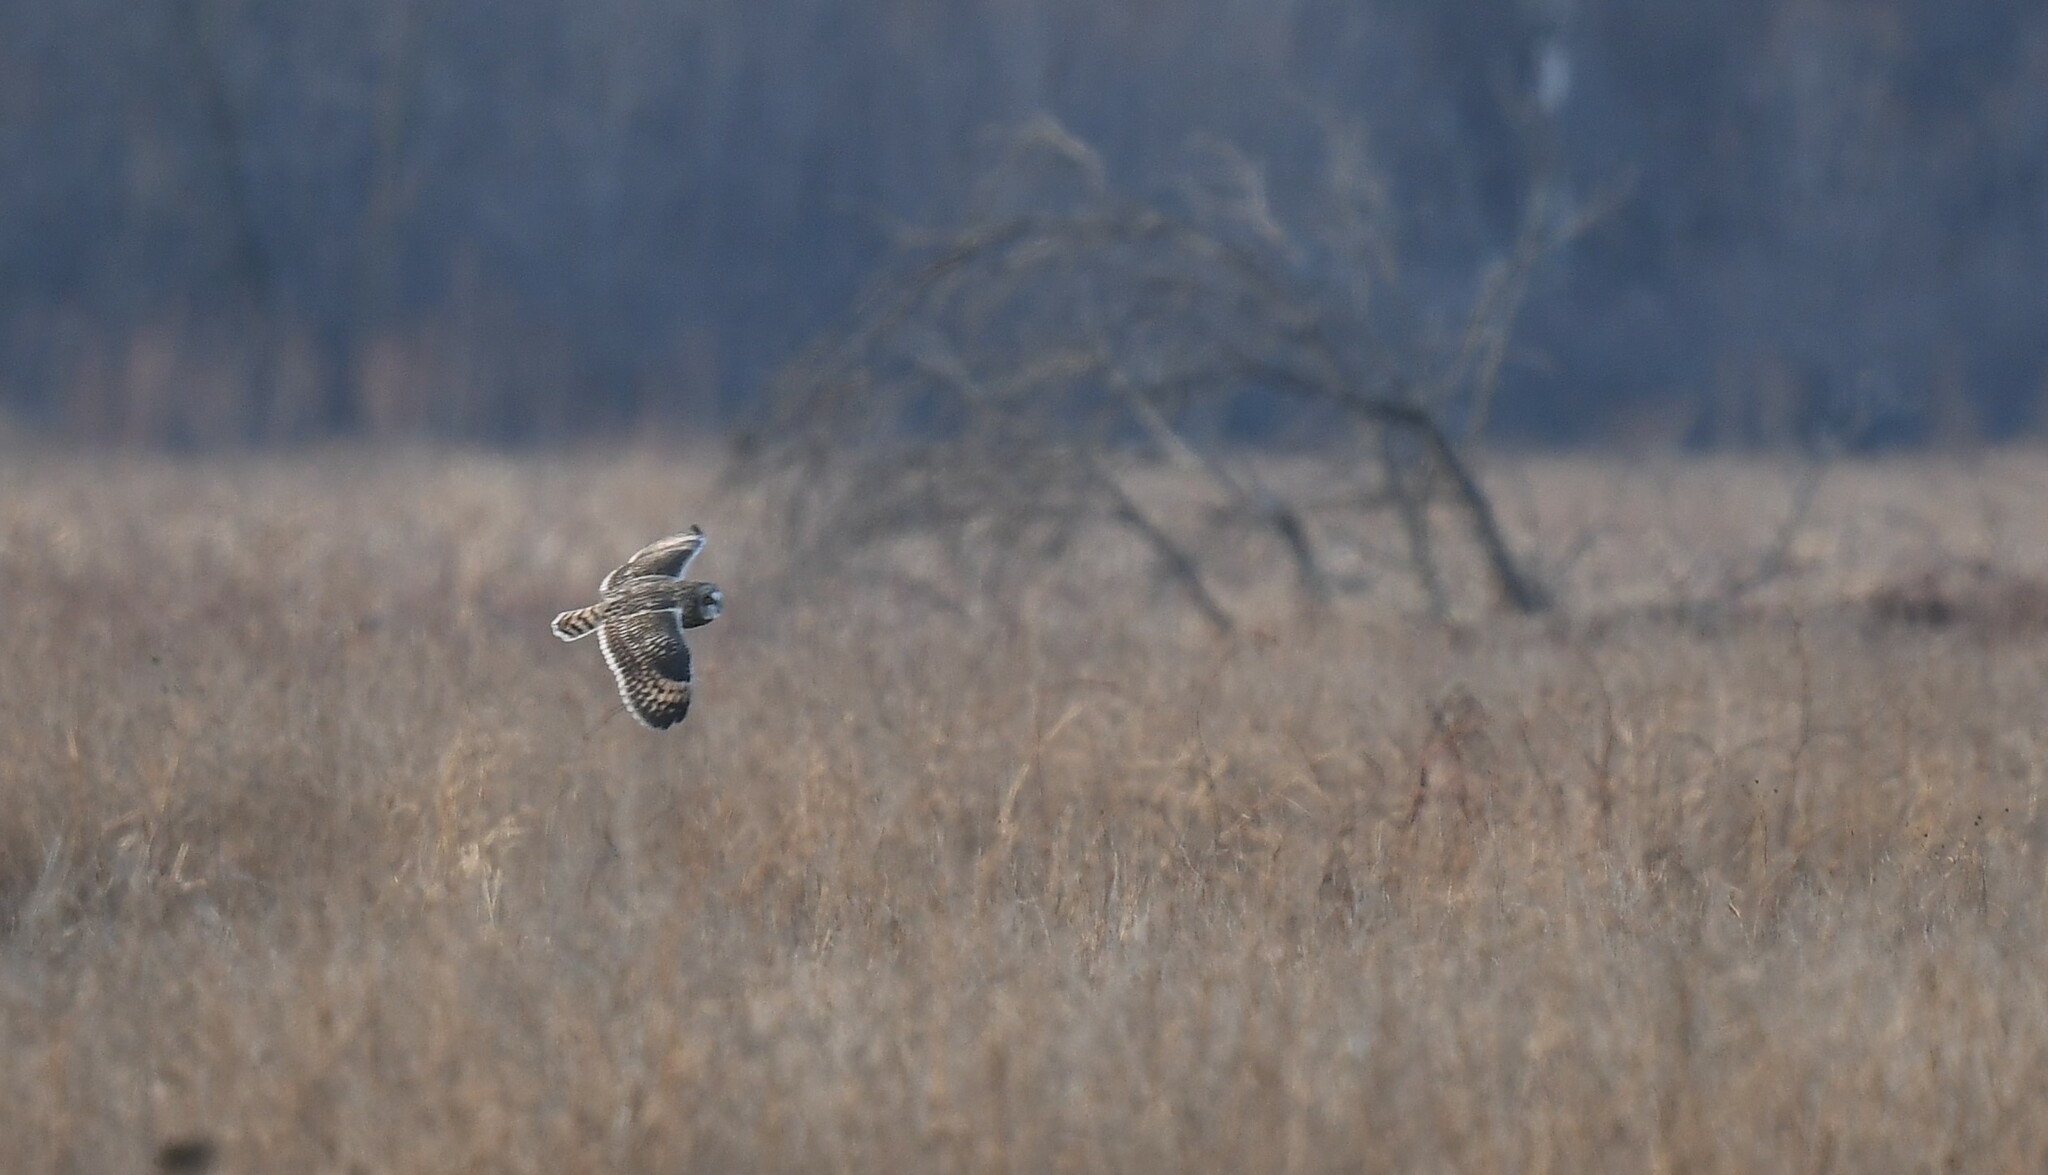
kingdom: Animalia
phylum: Chordata
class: Aves
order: Strigiformes
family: Strigidae
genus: Asio
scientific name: Asio flammeus
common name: Short-eared owl
